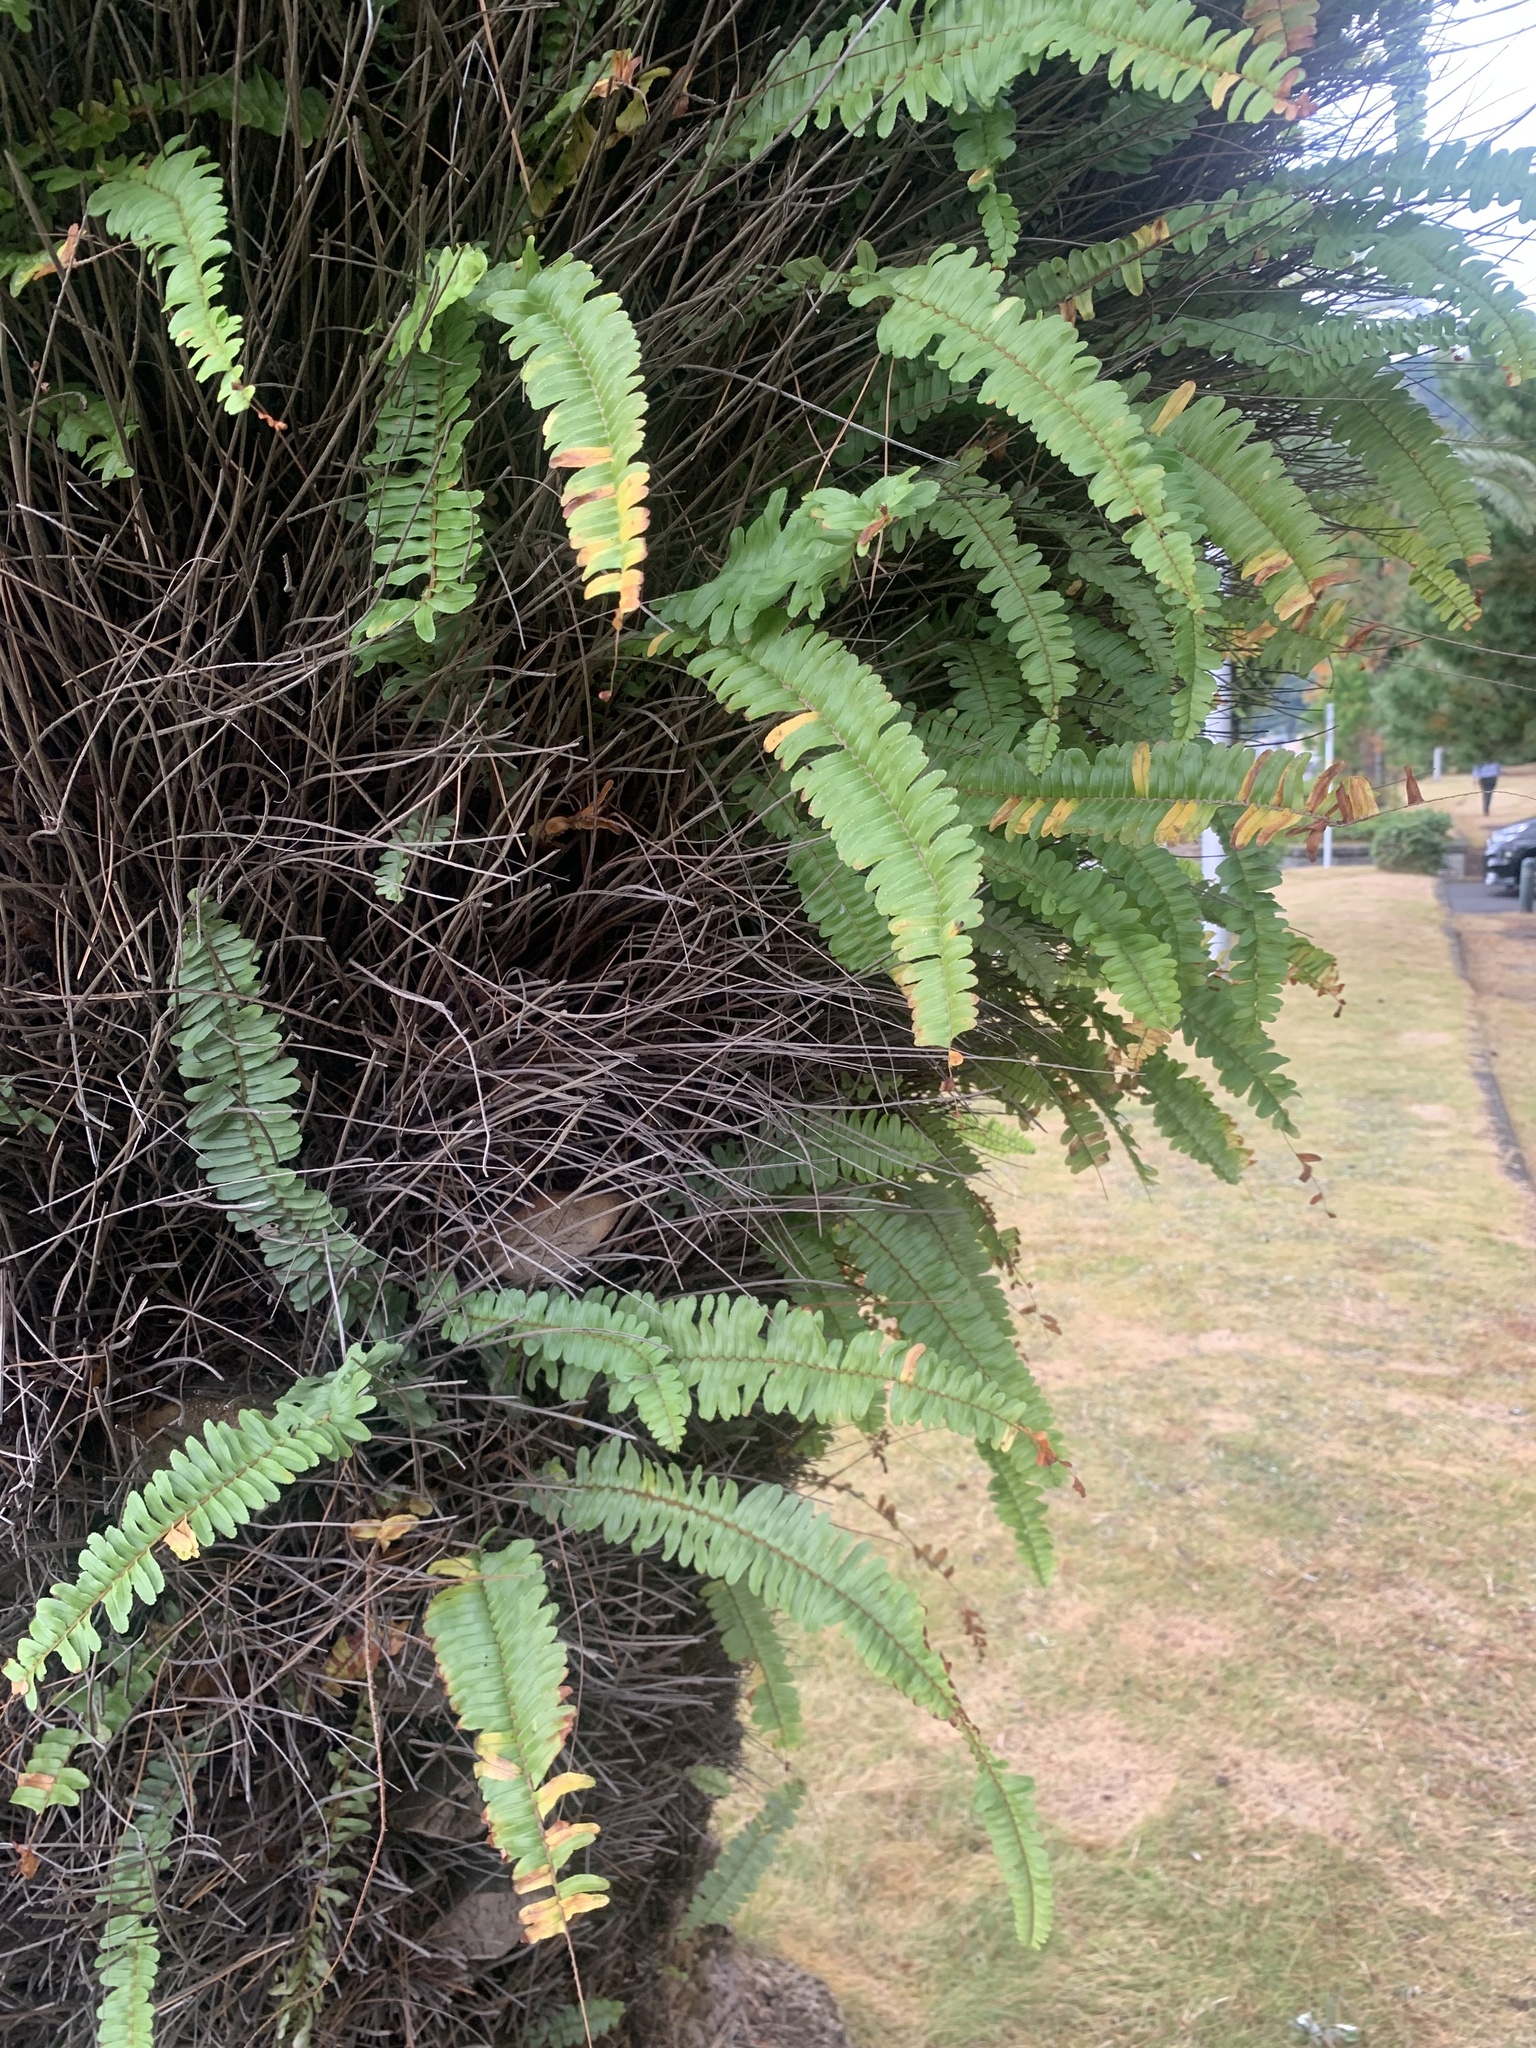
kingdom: Plantae
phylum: Tracheophyta
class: Polypodiopsida
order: Polypodiales
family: Nephrolepidaceae
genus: Nephrolepis
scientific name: Nephrolepis cordifolia
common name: Narrow swordfern
